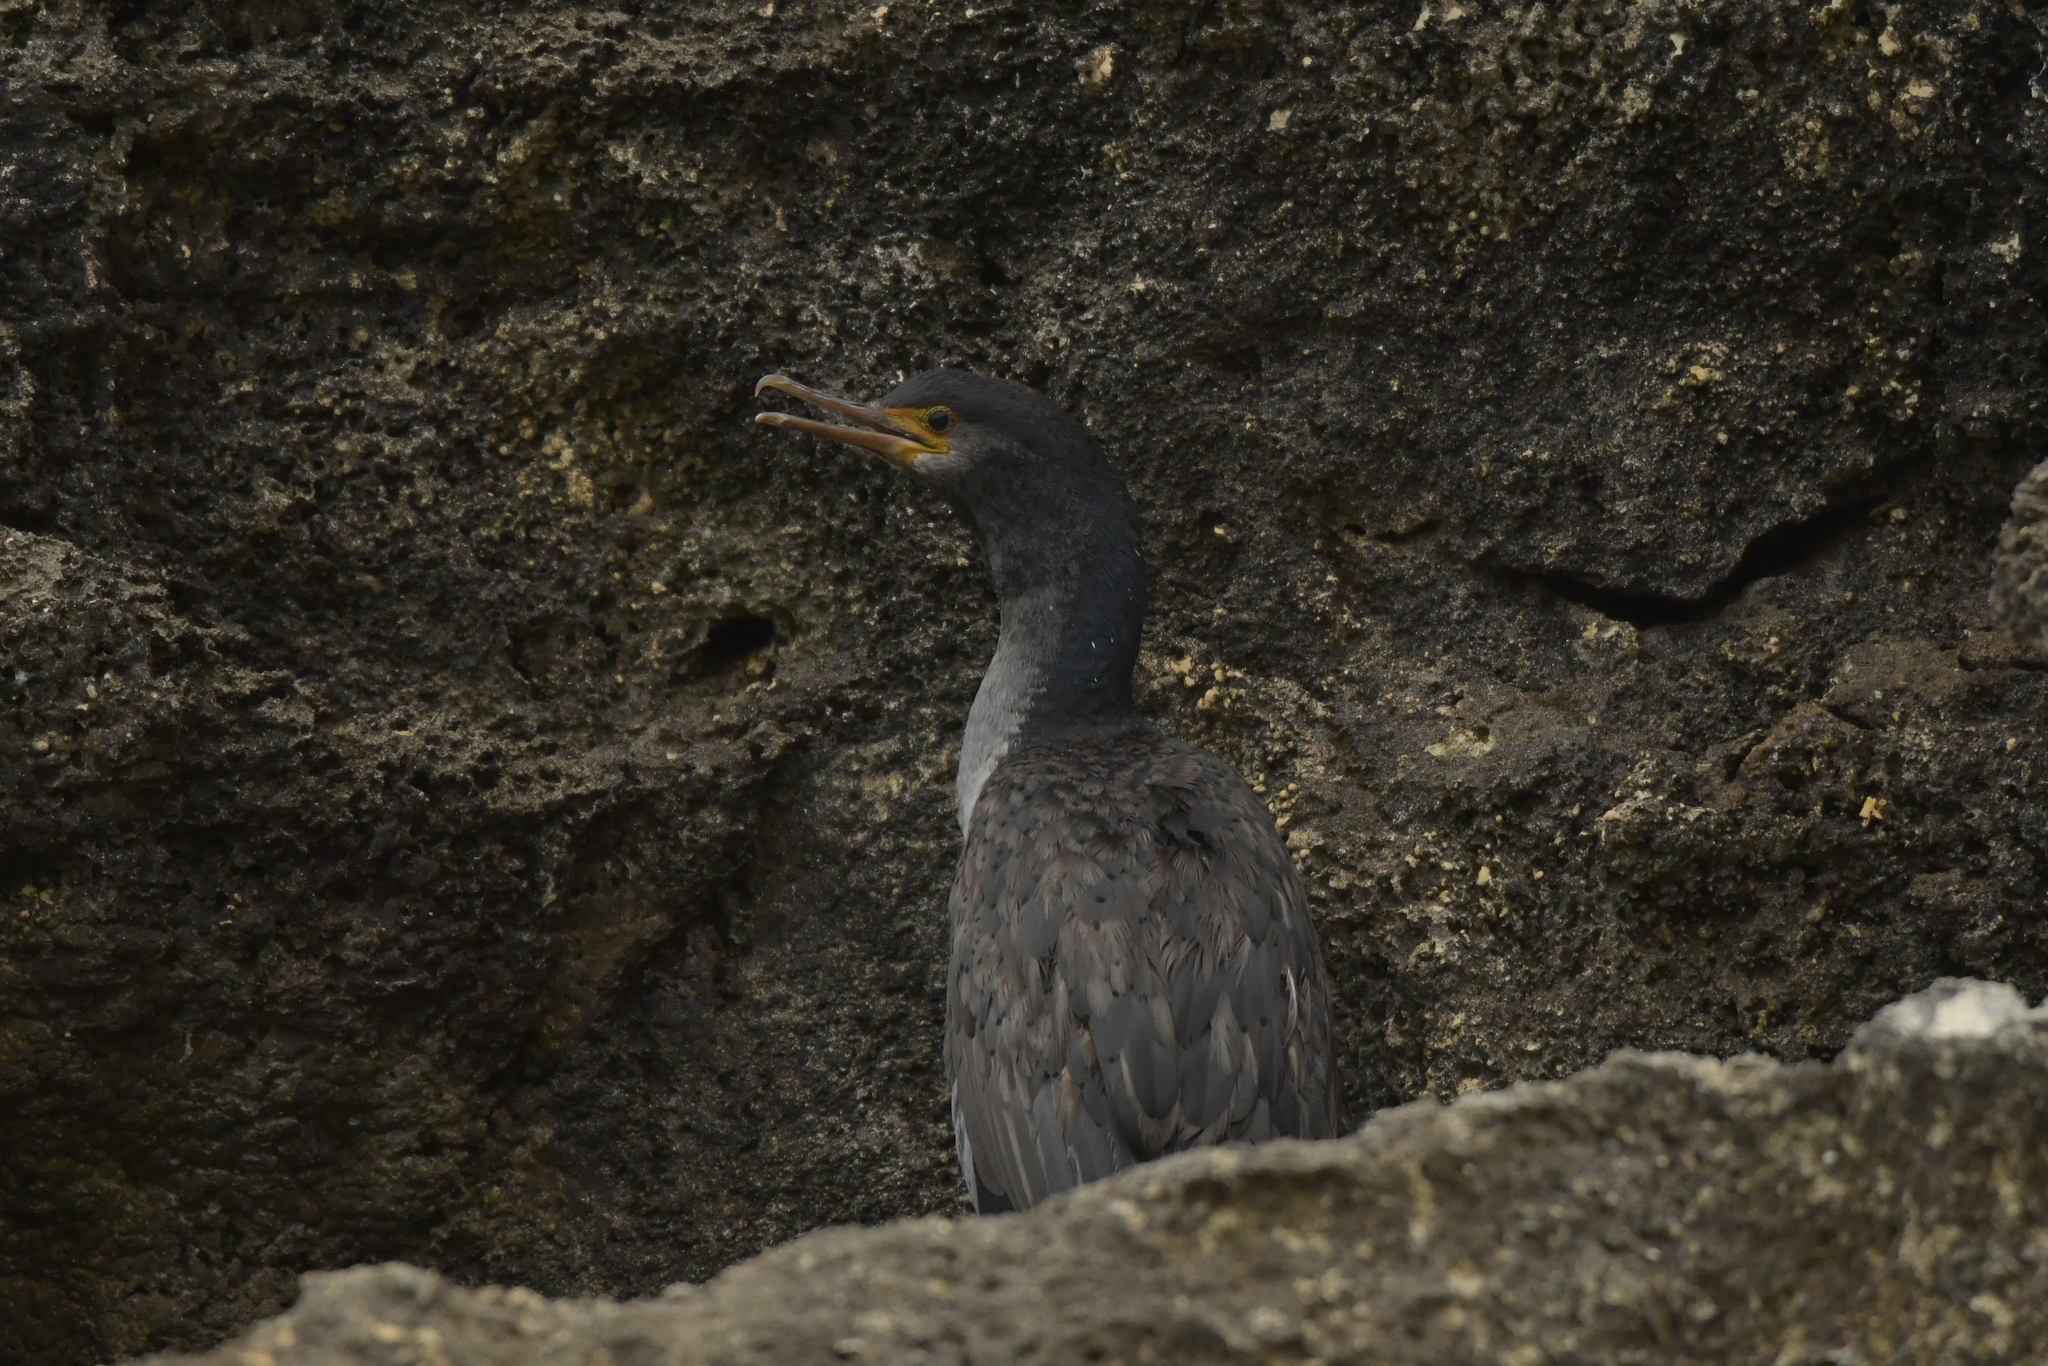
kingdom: Animalia
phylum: Chordata
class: Aves
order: Suliformes
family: Phalacrocoracidae
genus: Phalacrocorax
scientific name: Phalacrocorax featherstoni
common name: Pitt shag
